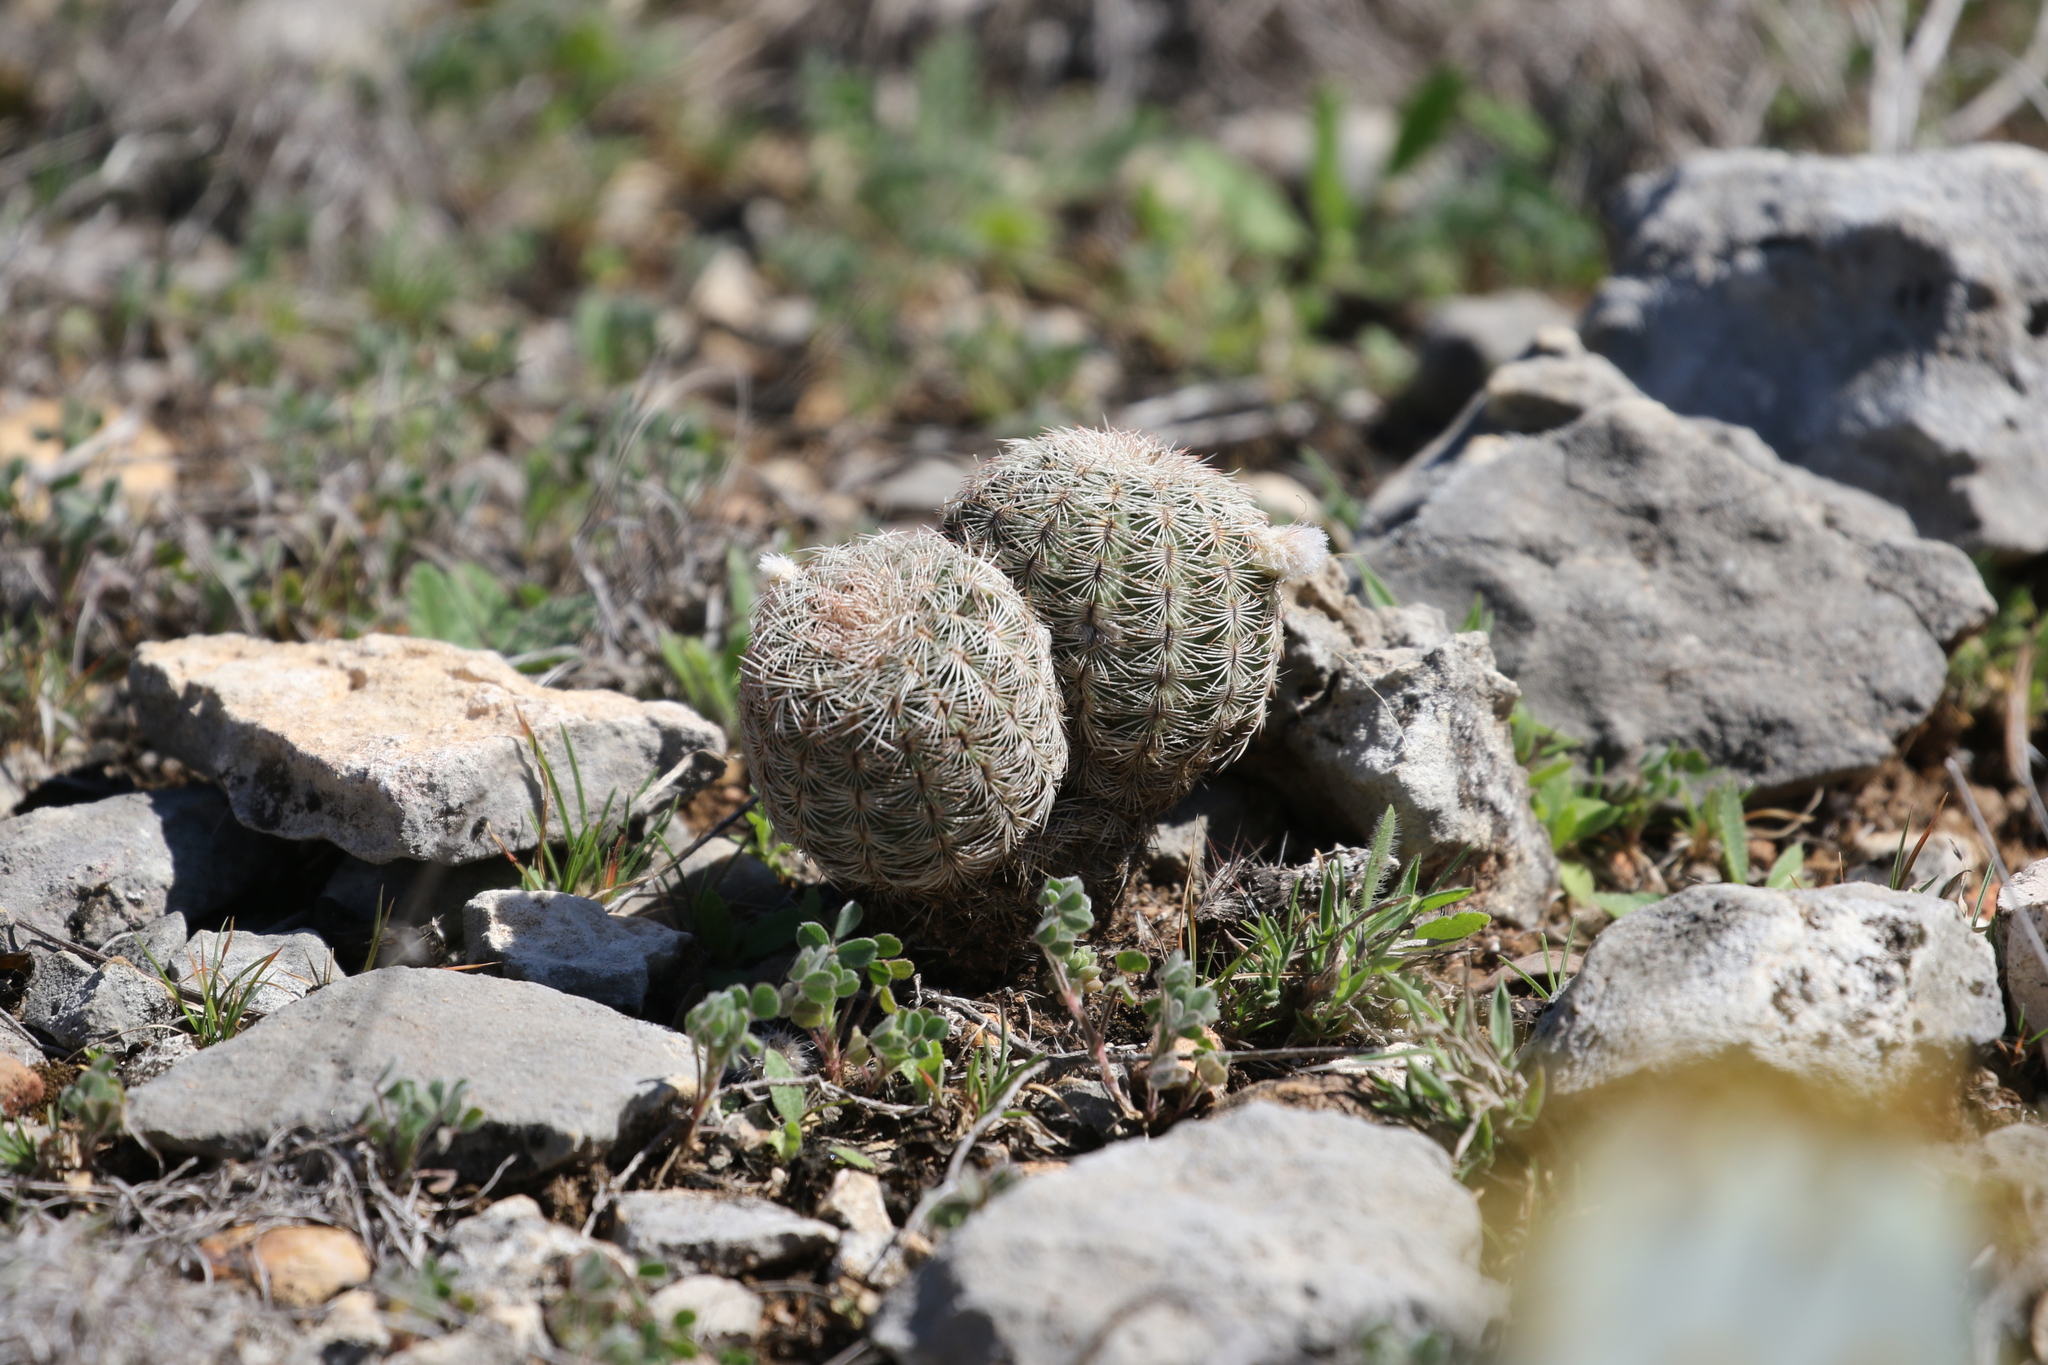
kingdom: Plantae
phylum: Tracheophyta
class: Magnoliopsida
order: Caryophyllales
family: Cactaceae
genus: Echinocereus
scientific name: Echinocereus reichenbachii
